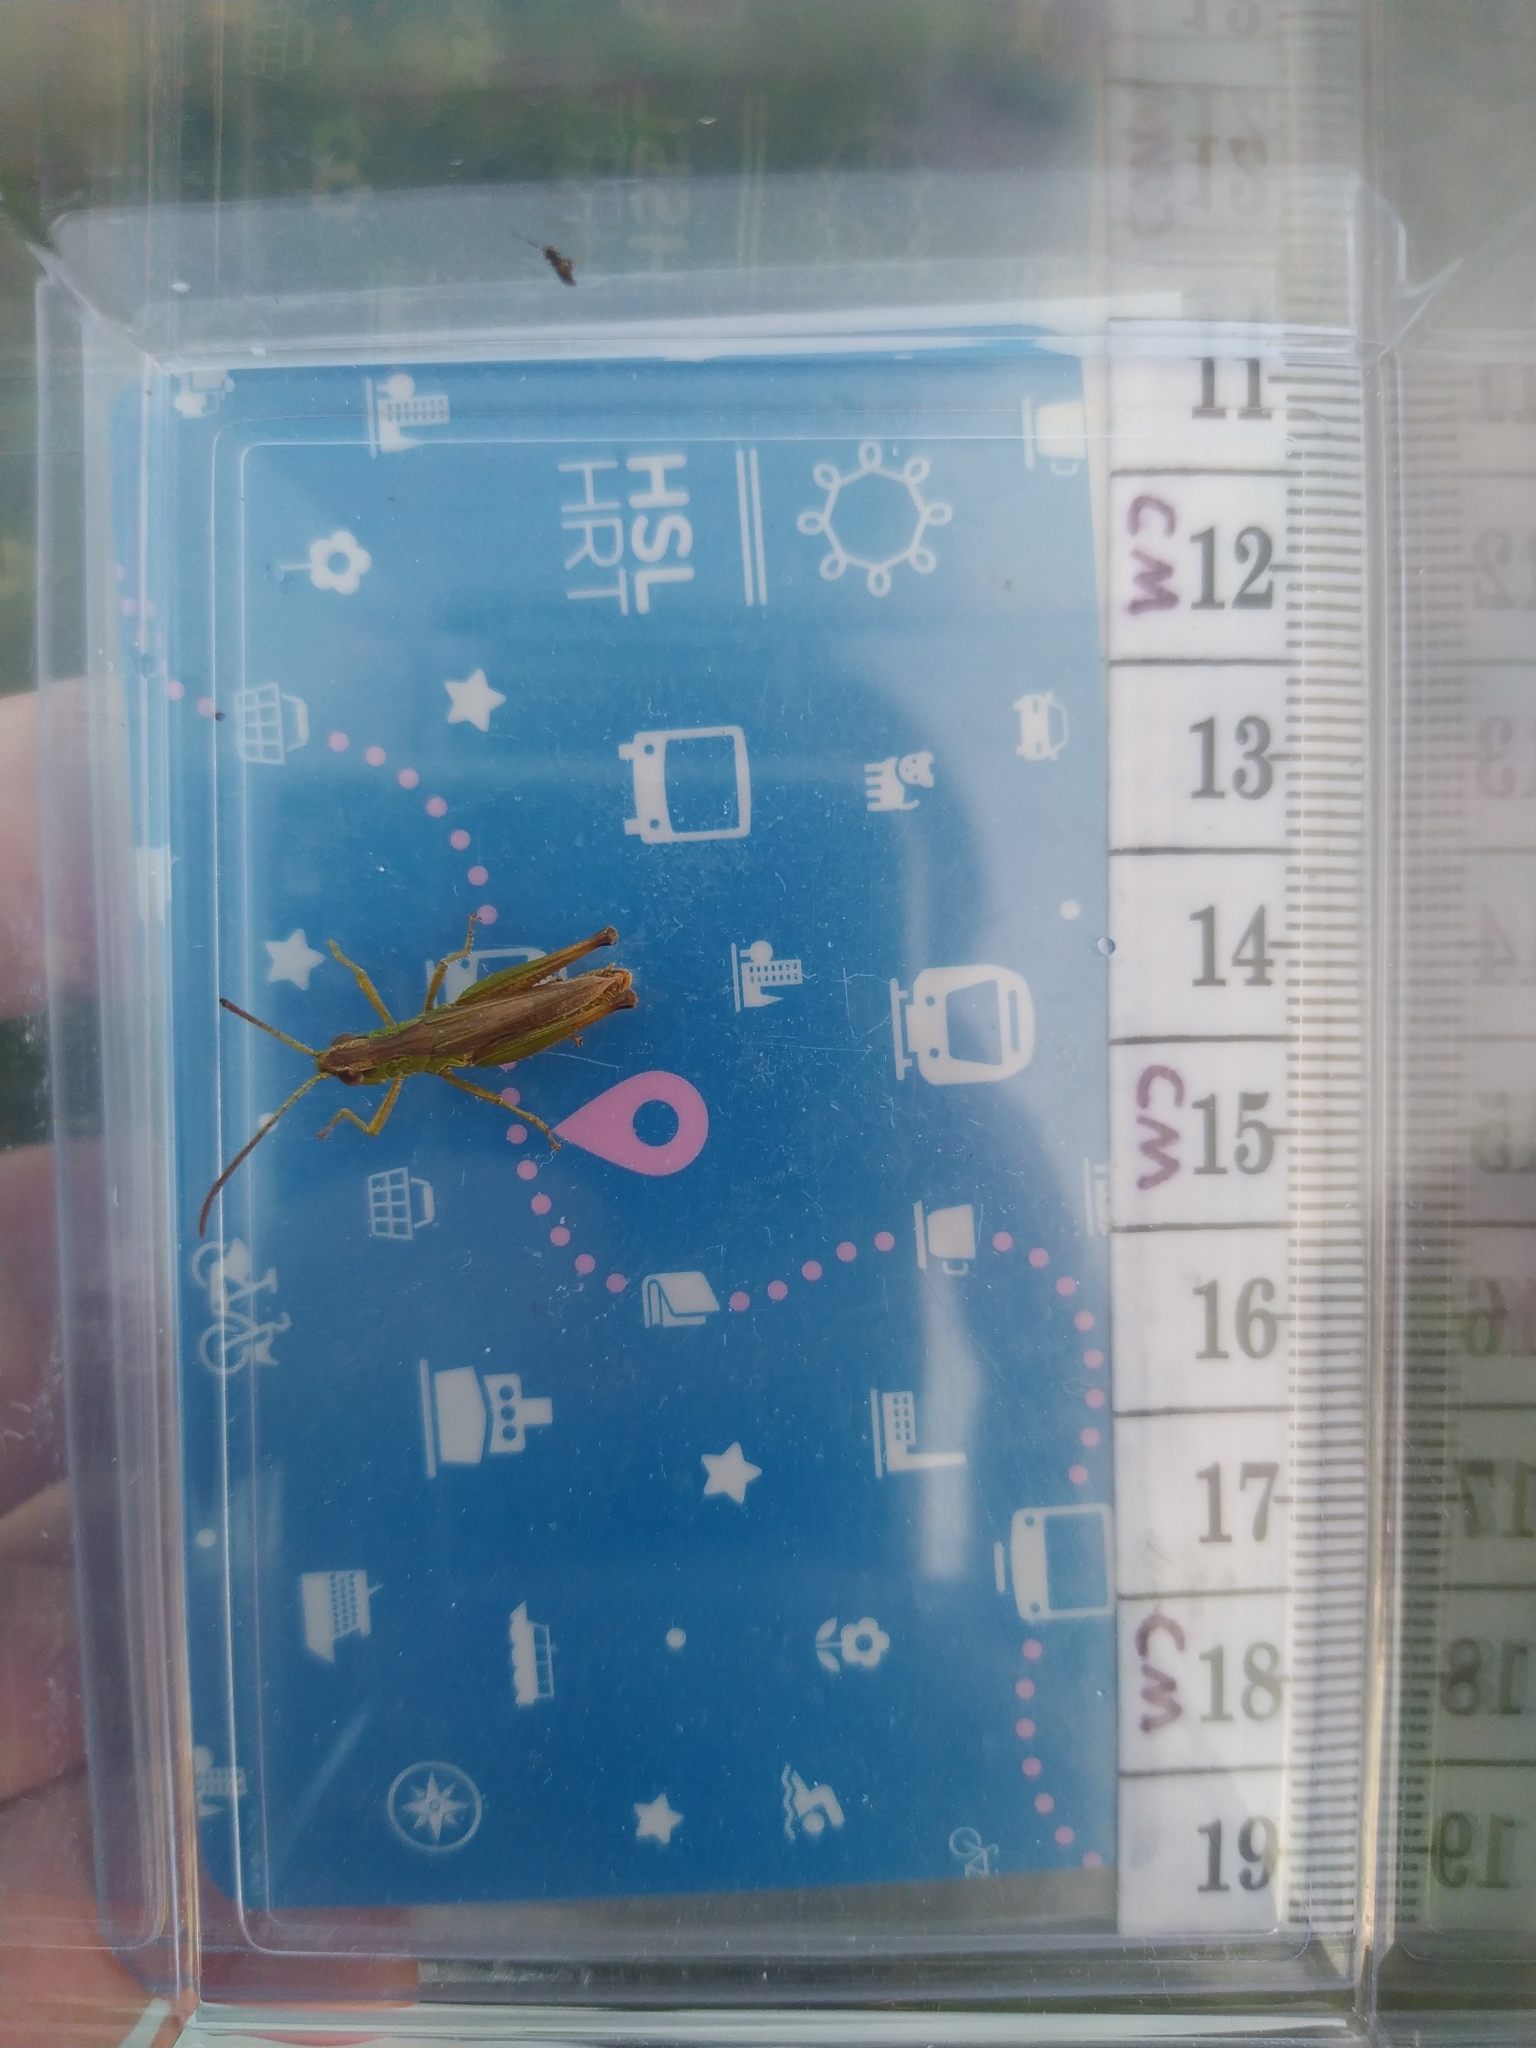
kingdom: Animalia
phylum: Arthropoda
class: Insecta
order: Orthoptera
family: Acrididae
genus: Pseudochorthippus
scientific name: Pseudochorthippus parallelus
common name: Meadow grasshopper
